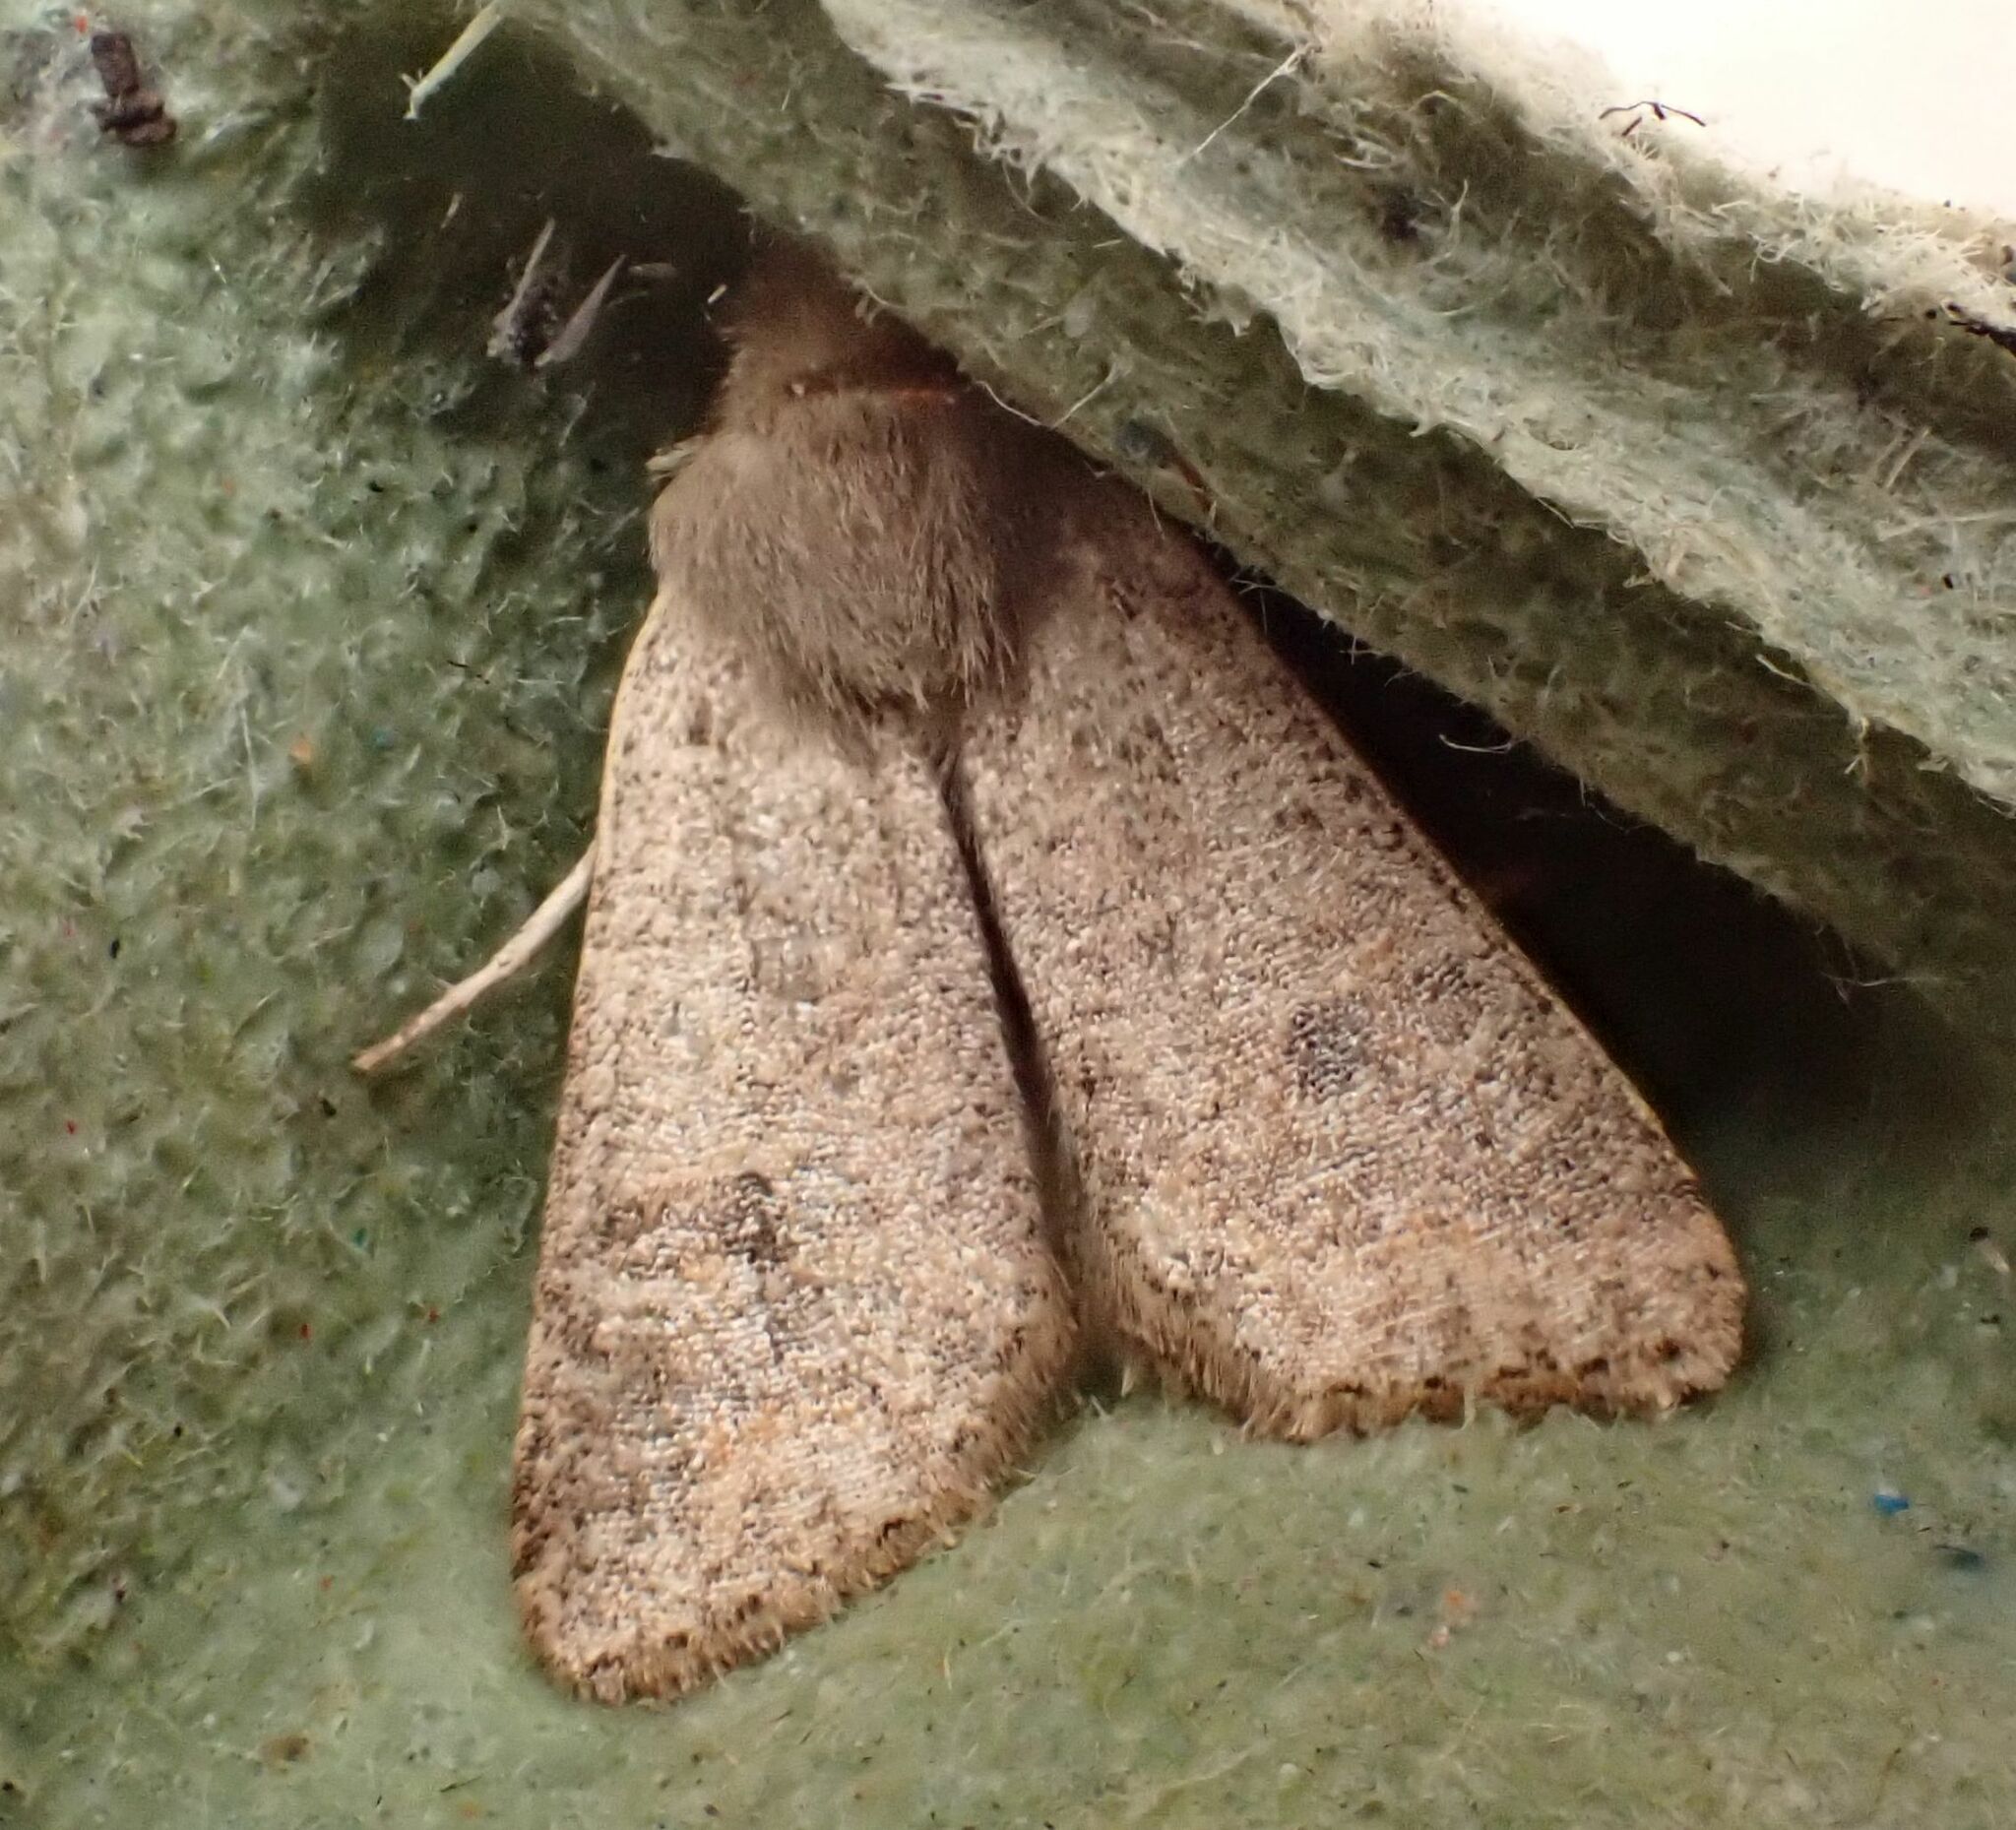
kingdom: Animalia
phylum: Arthropoda
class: Insecta
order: Lepidoptera
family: Noctuidae
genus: Orthosia
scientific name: Orthosia cruda
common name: Small quaker
